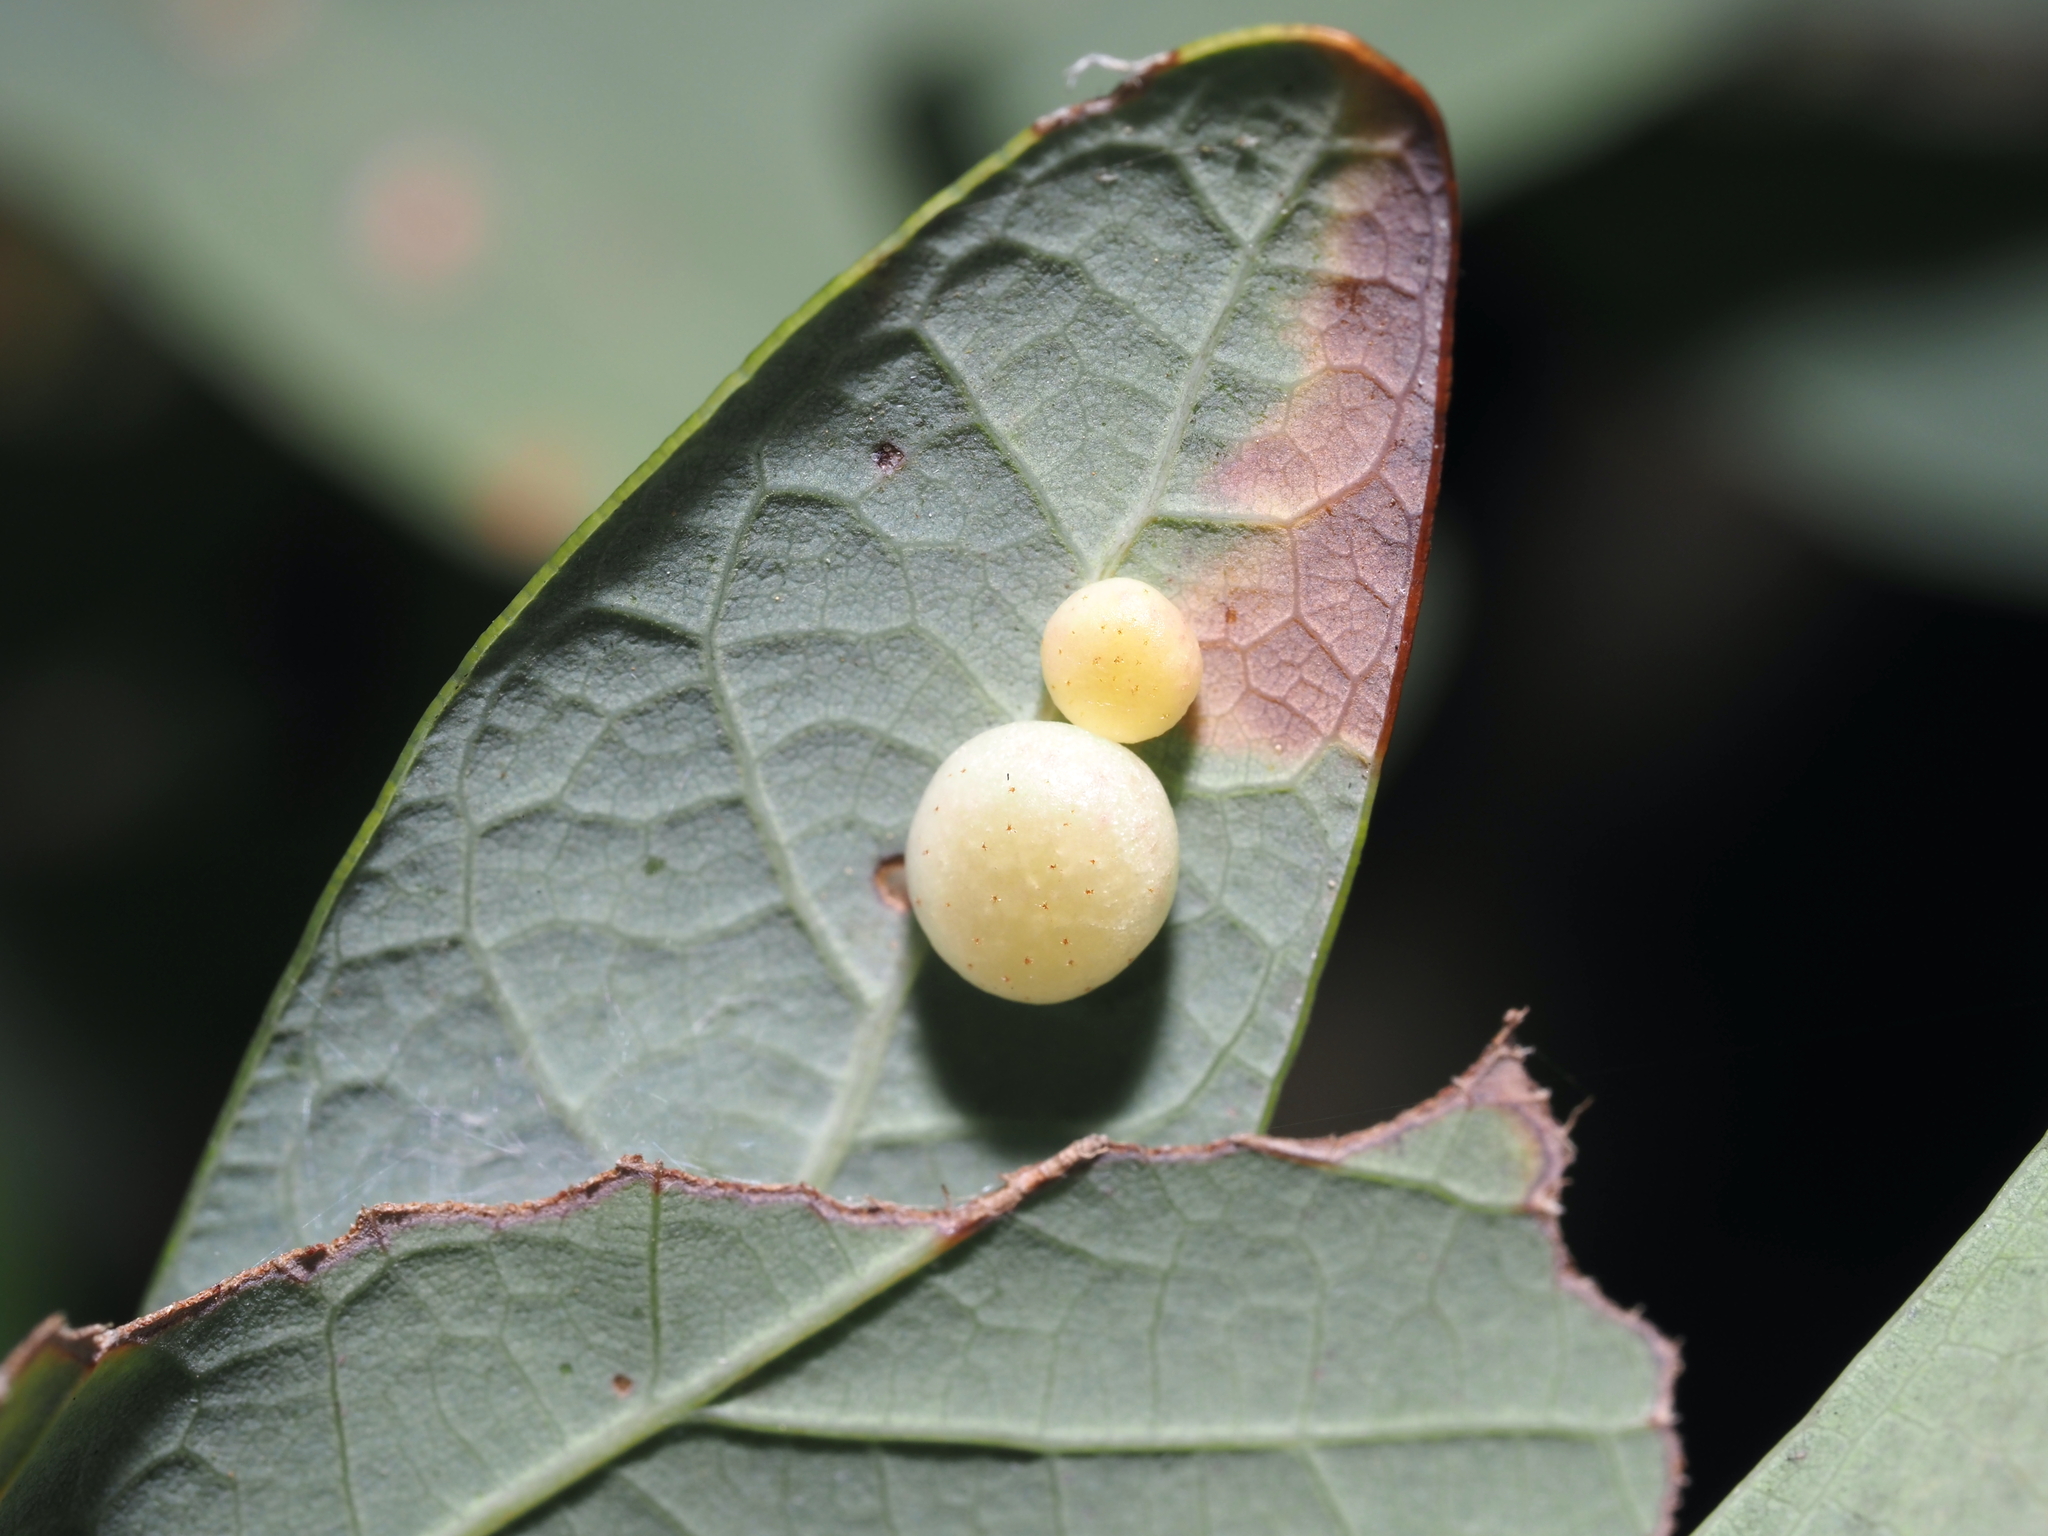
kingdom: Animalia
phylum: Arthropoda
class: Insecta
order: Hymenoptera
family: Cynipidae
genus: Phylloteras
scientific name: Phylloteras
